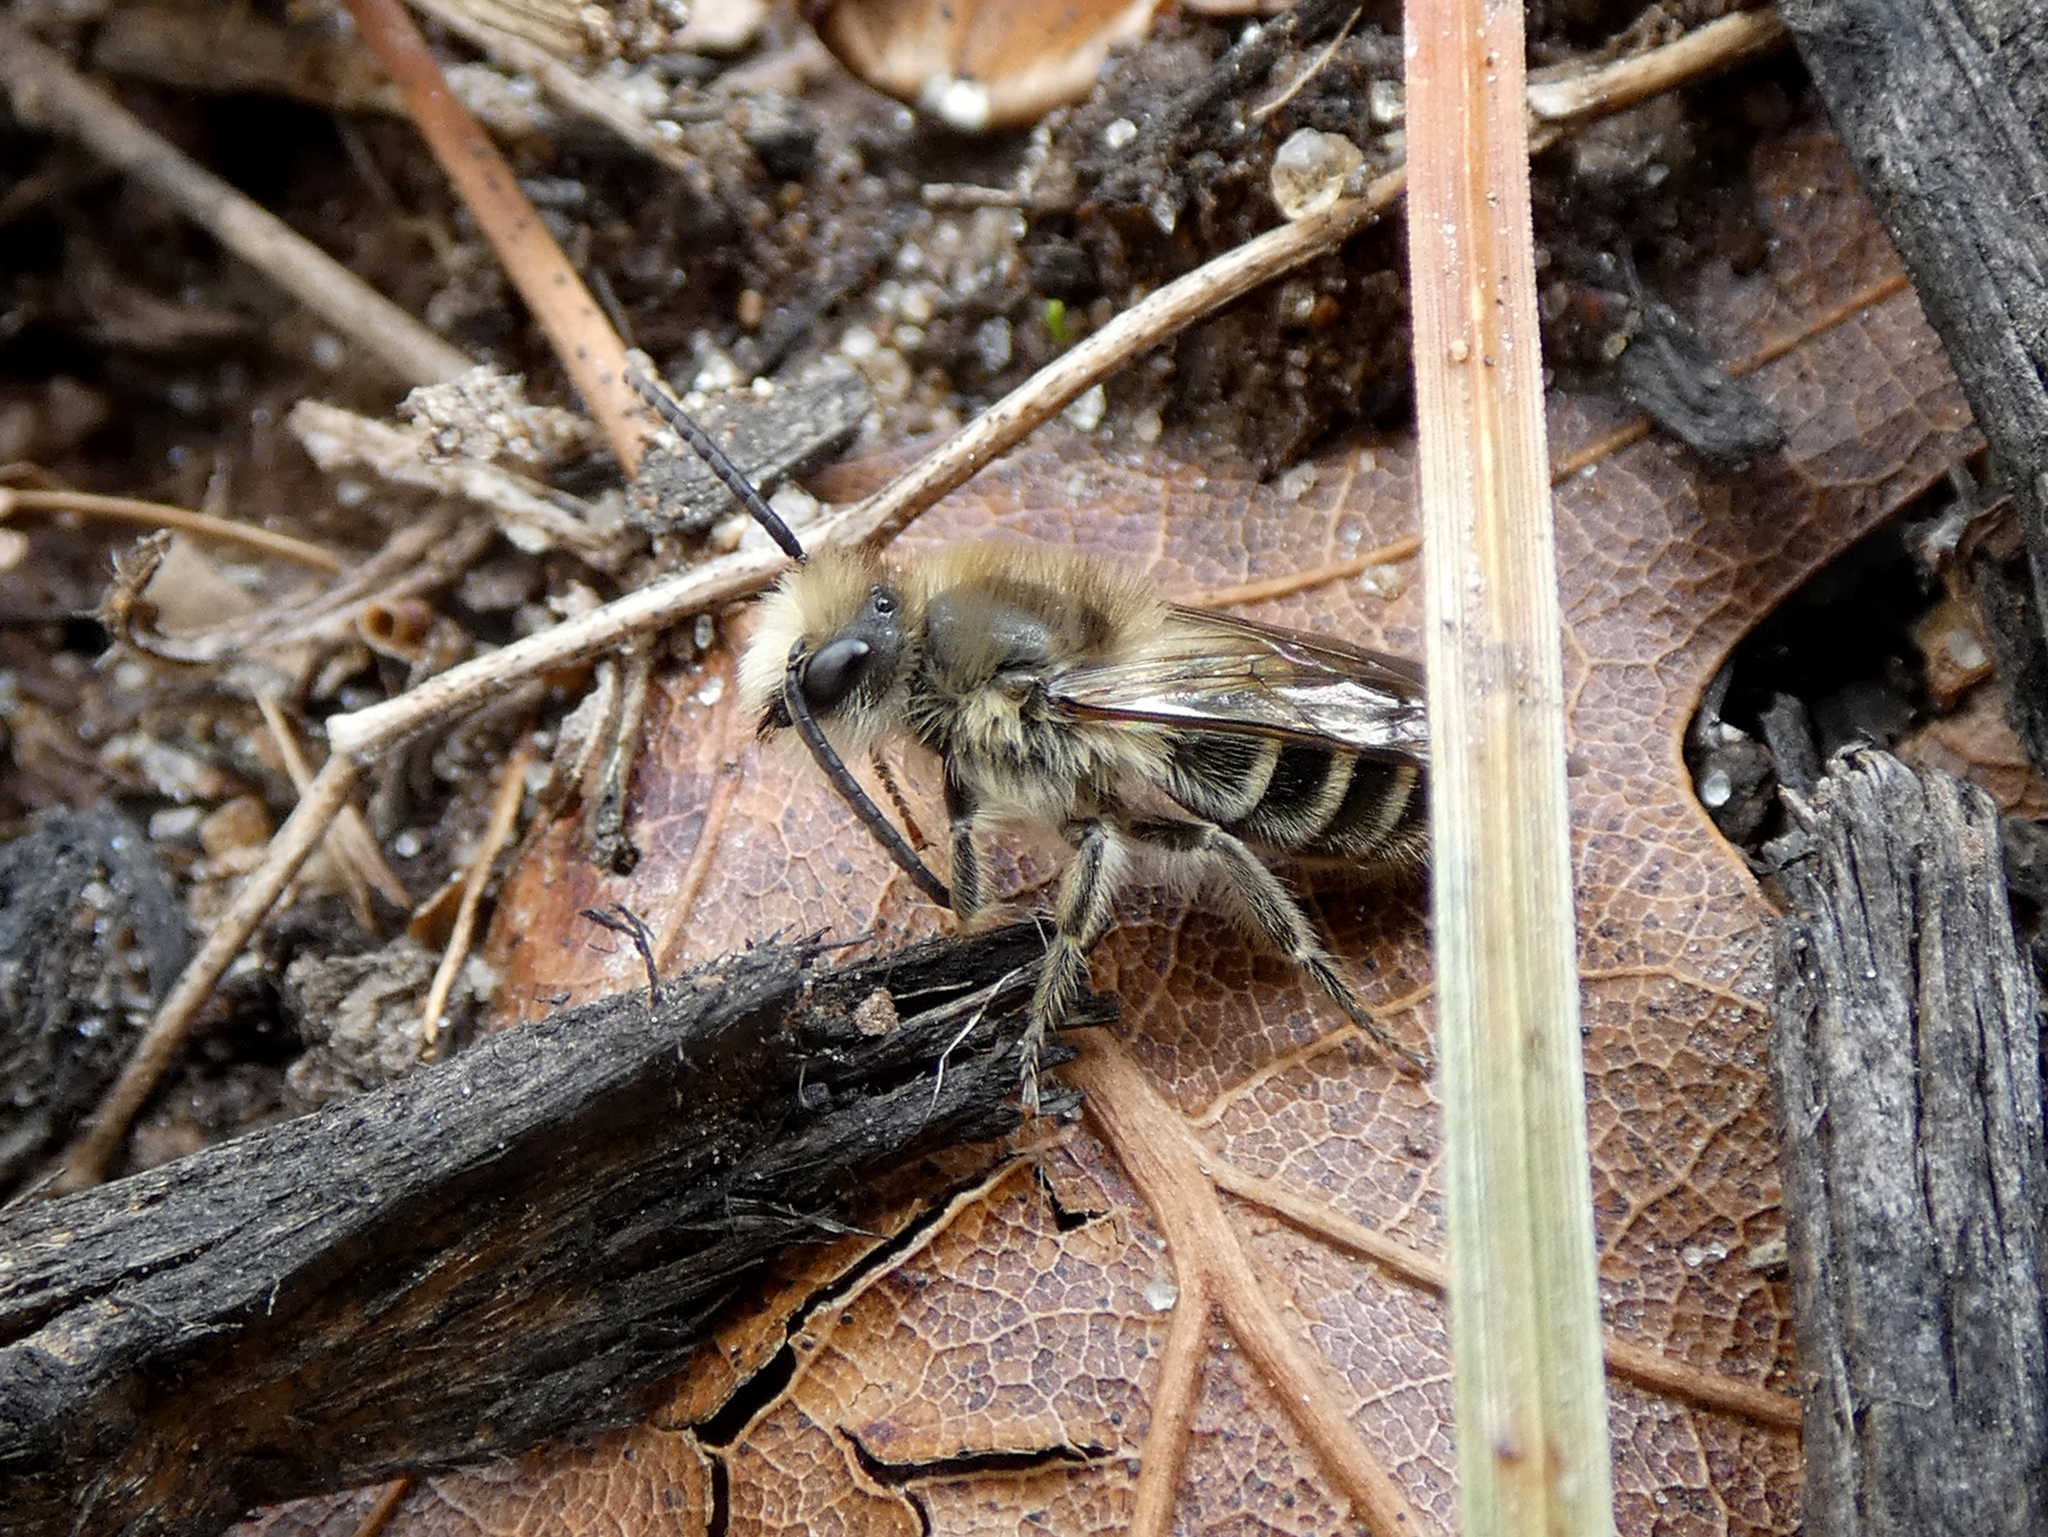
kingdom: Animalia
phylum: Arthropoda
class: Insecta
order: Hymenoptera
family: Colletidae
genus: Colletes
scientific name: Colletes inaequalis
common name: Unequal cellophane bee
